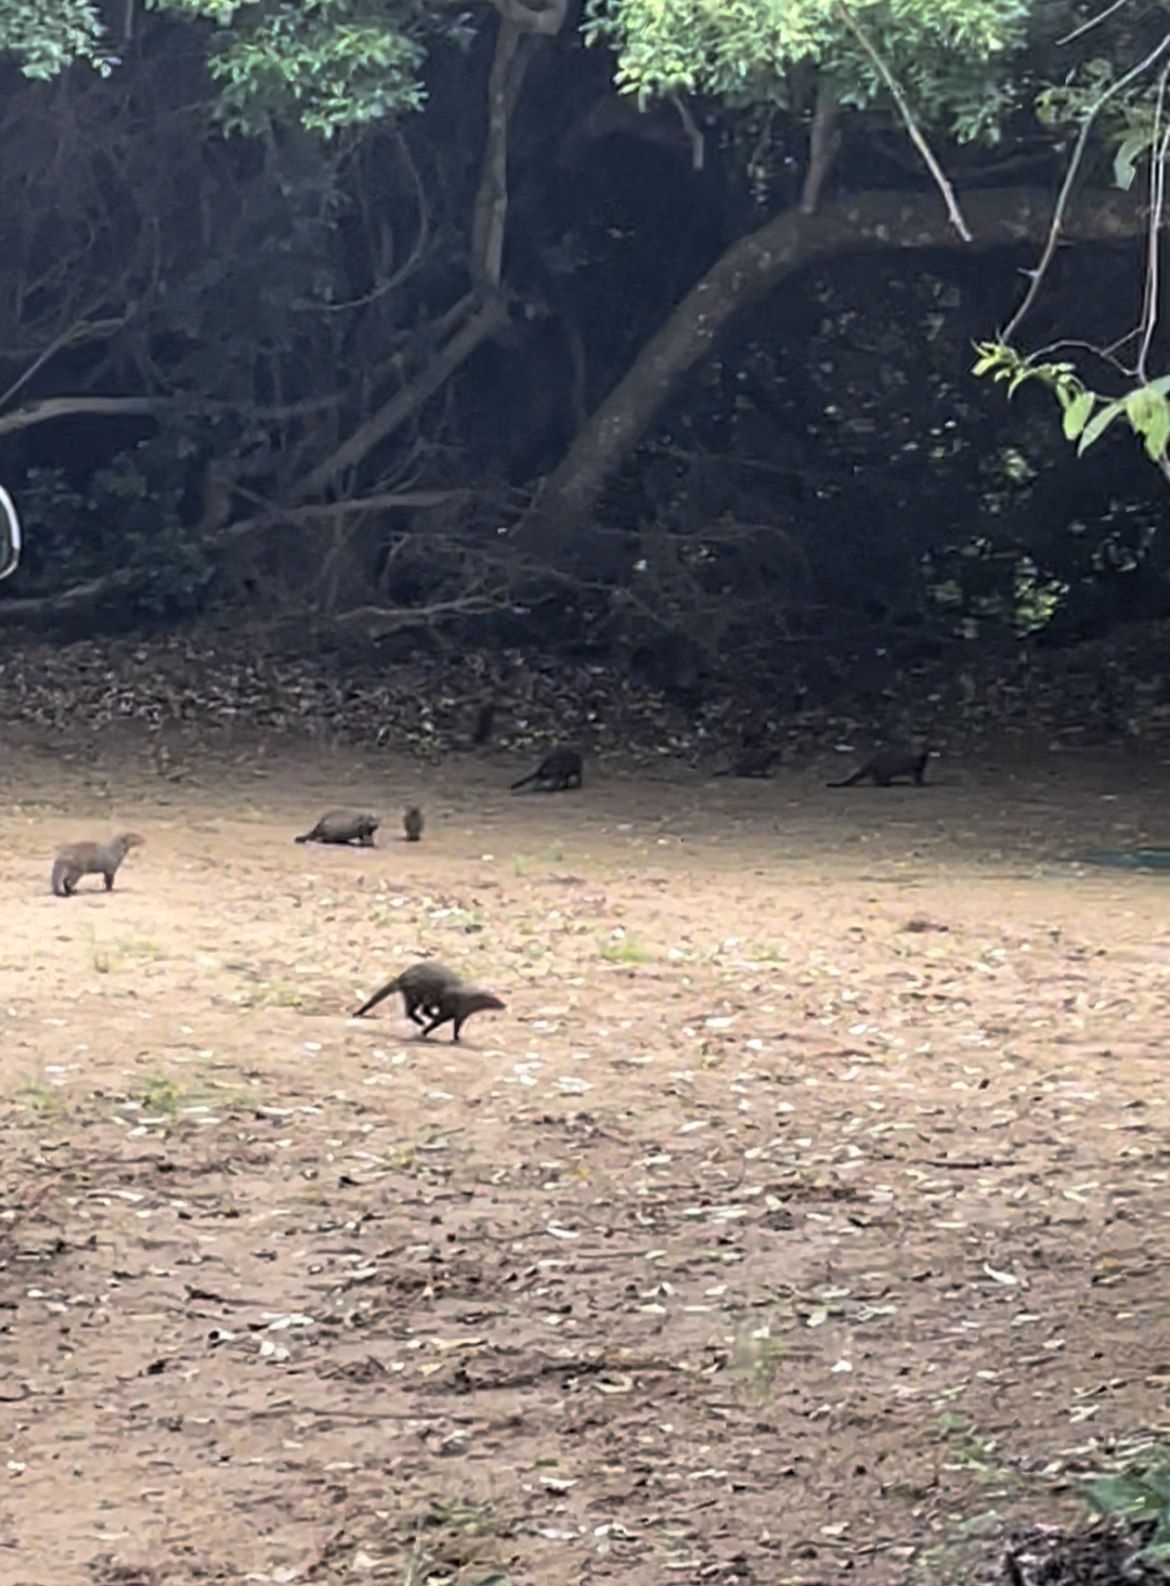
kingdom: Animalia
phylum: Chordata
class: Mammalia
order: Carnivora
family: Herpestidae
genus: Mungos
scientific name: Mungos mungo
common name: Banded mongoose
